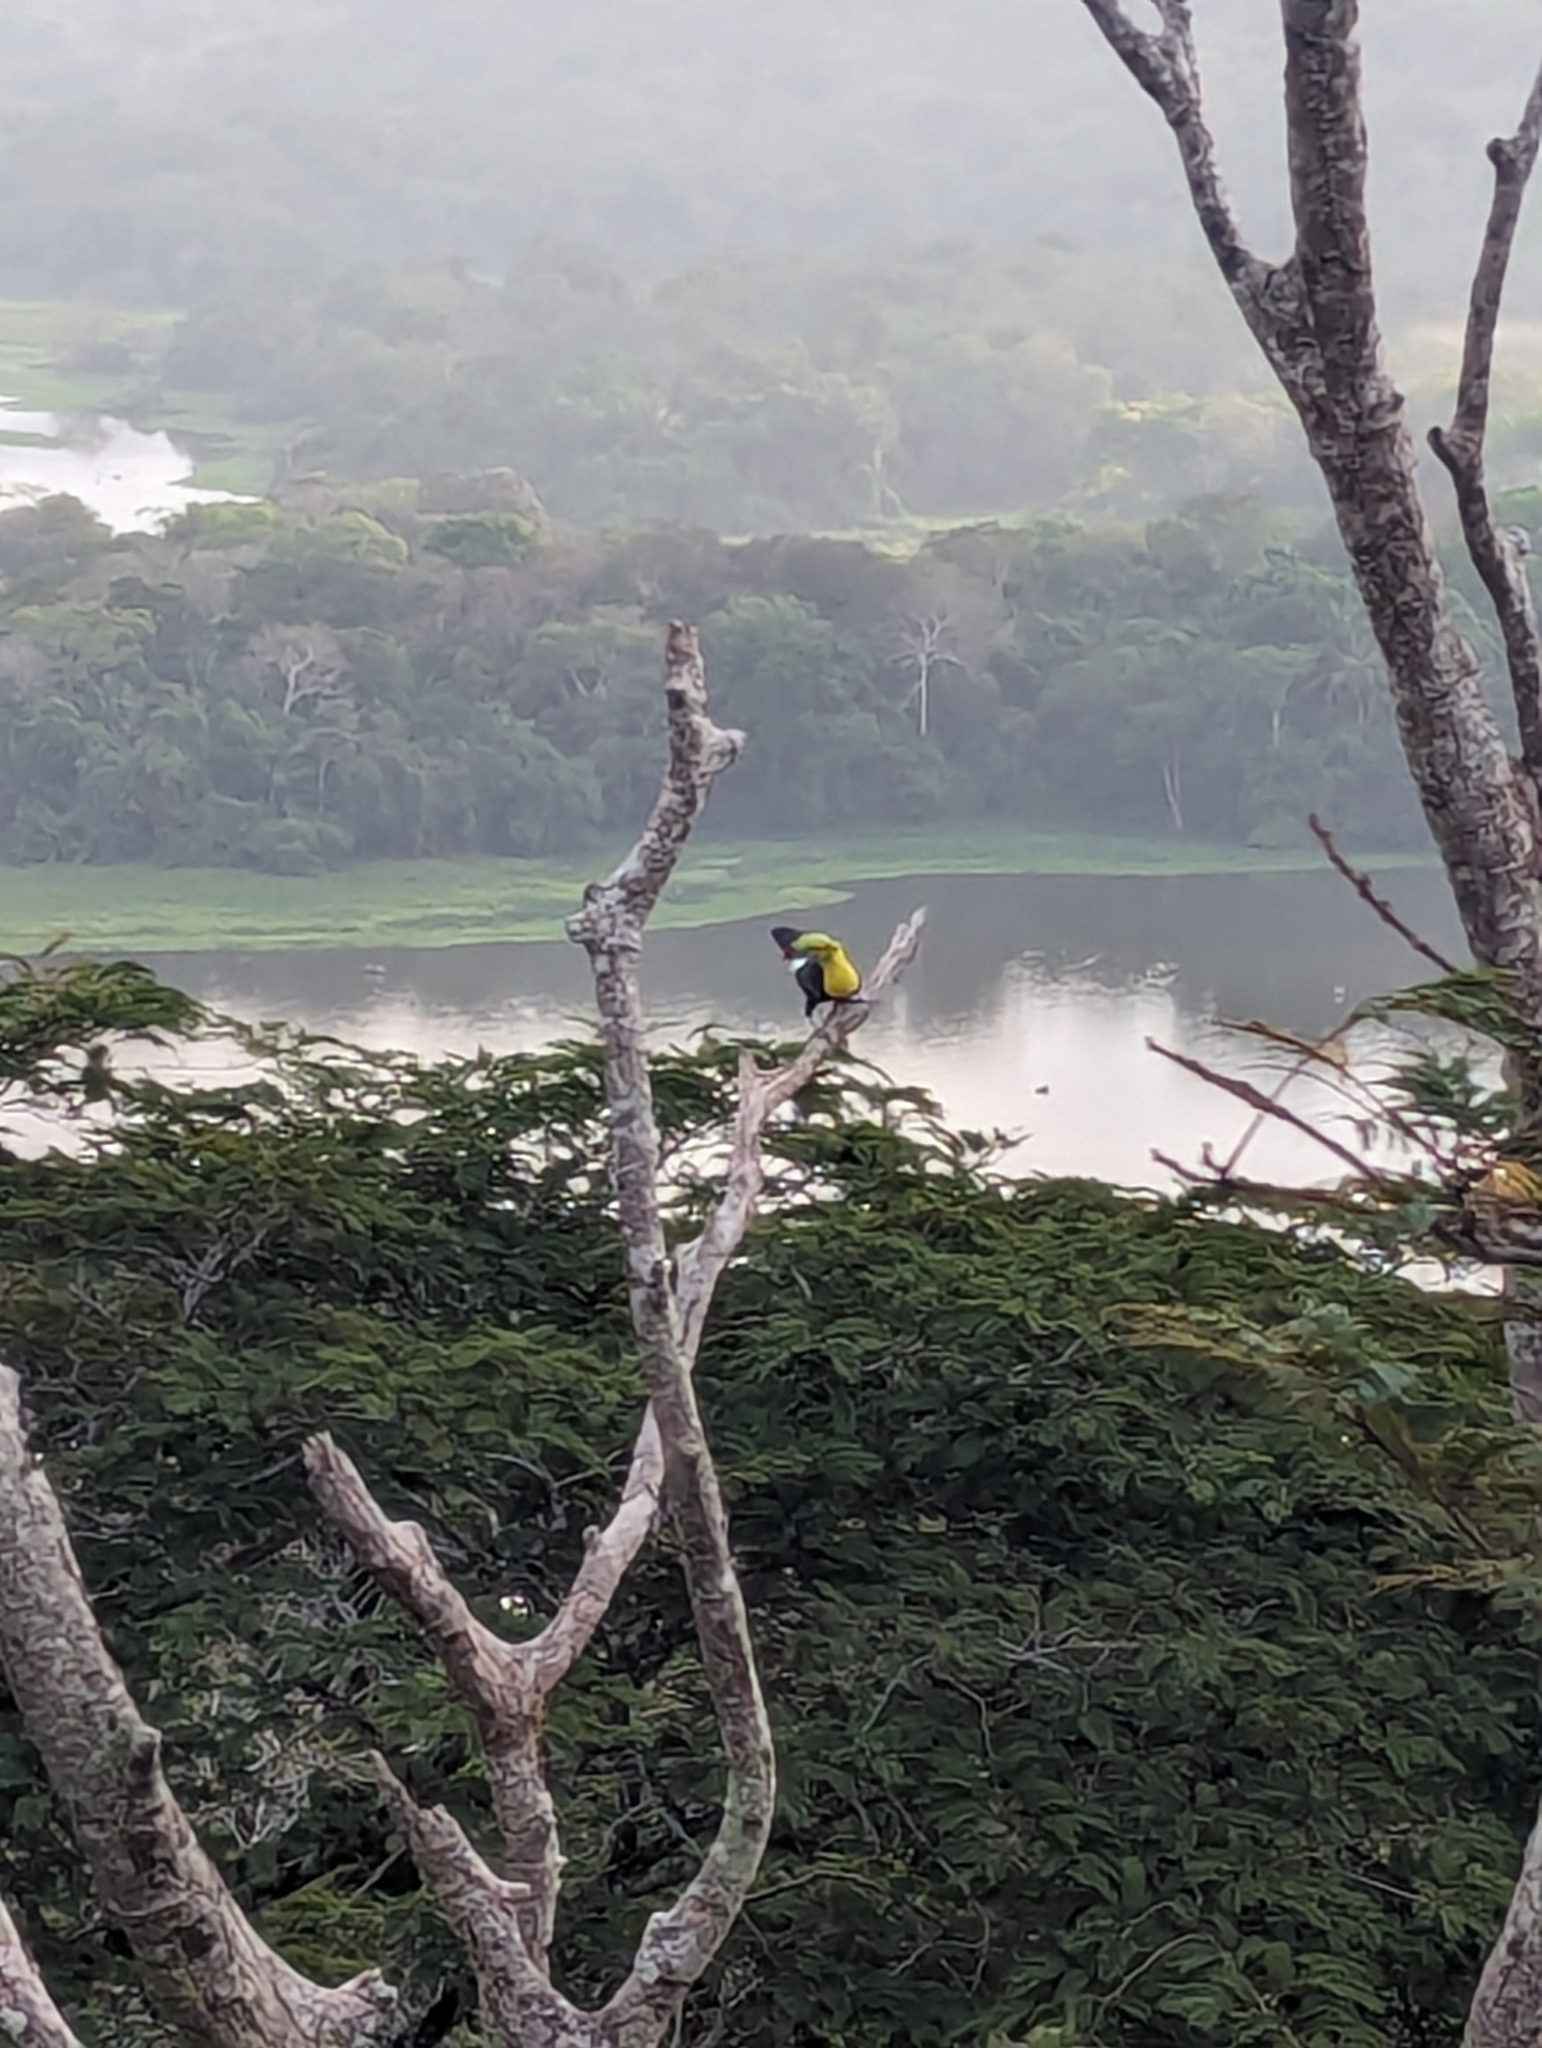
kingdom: Animalia
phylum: Chordata
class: Aves
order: Piciformes
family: Ramphastidae
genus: Ramphastos
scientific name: Ramphastos sulfuratus
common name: Keel-billed toucan
